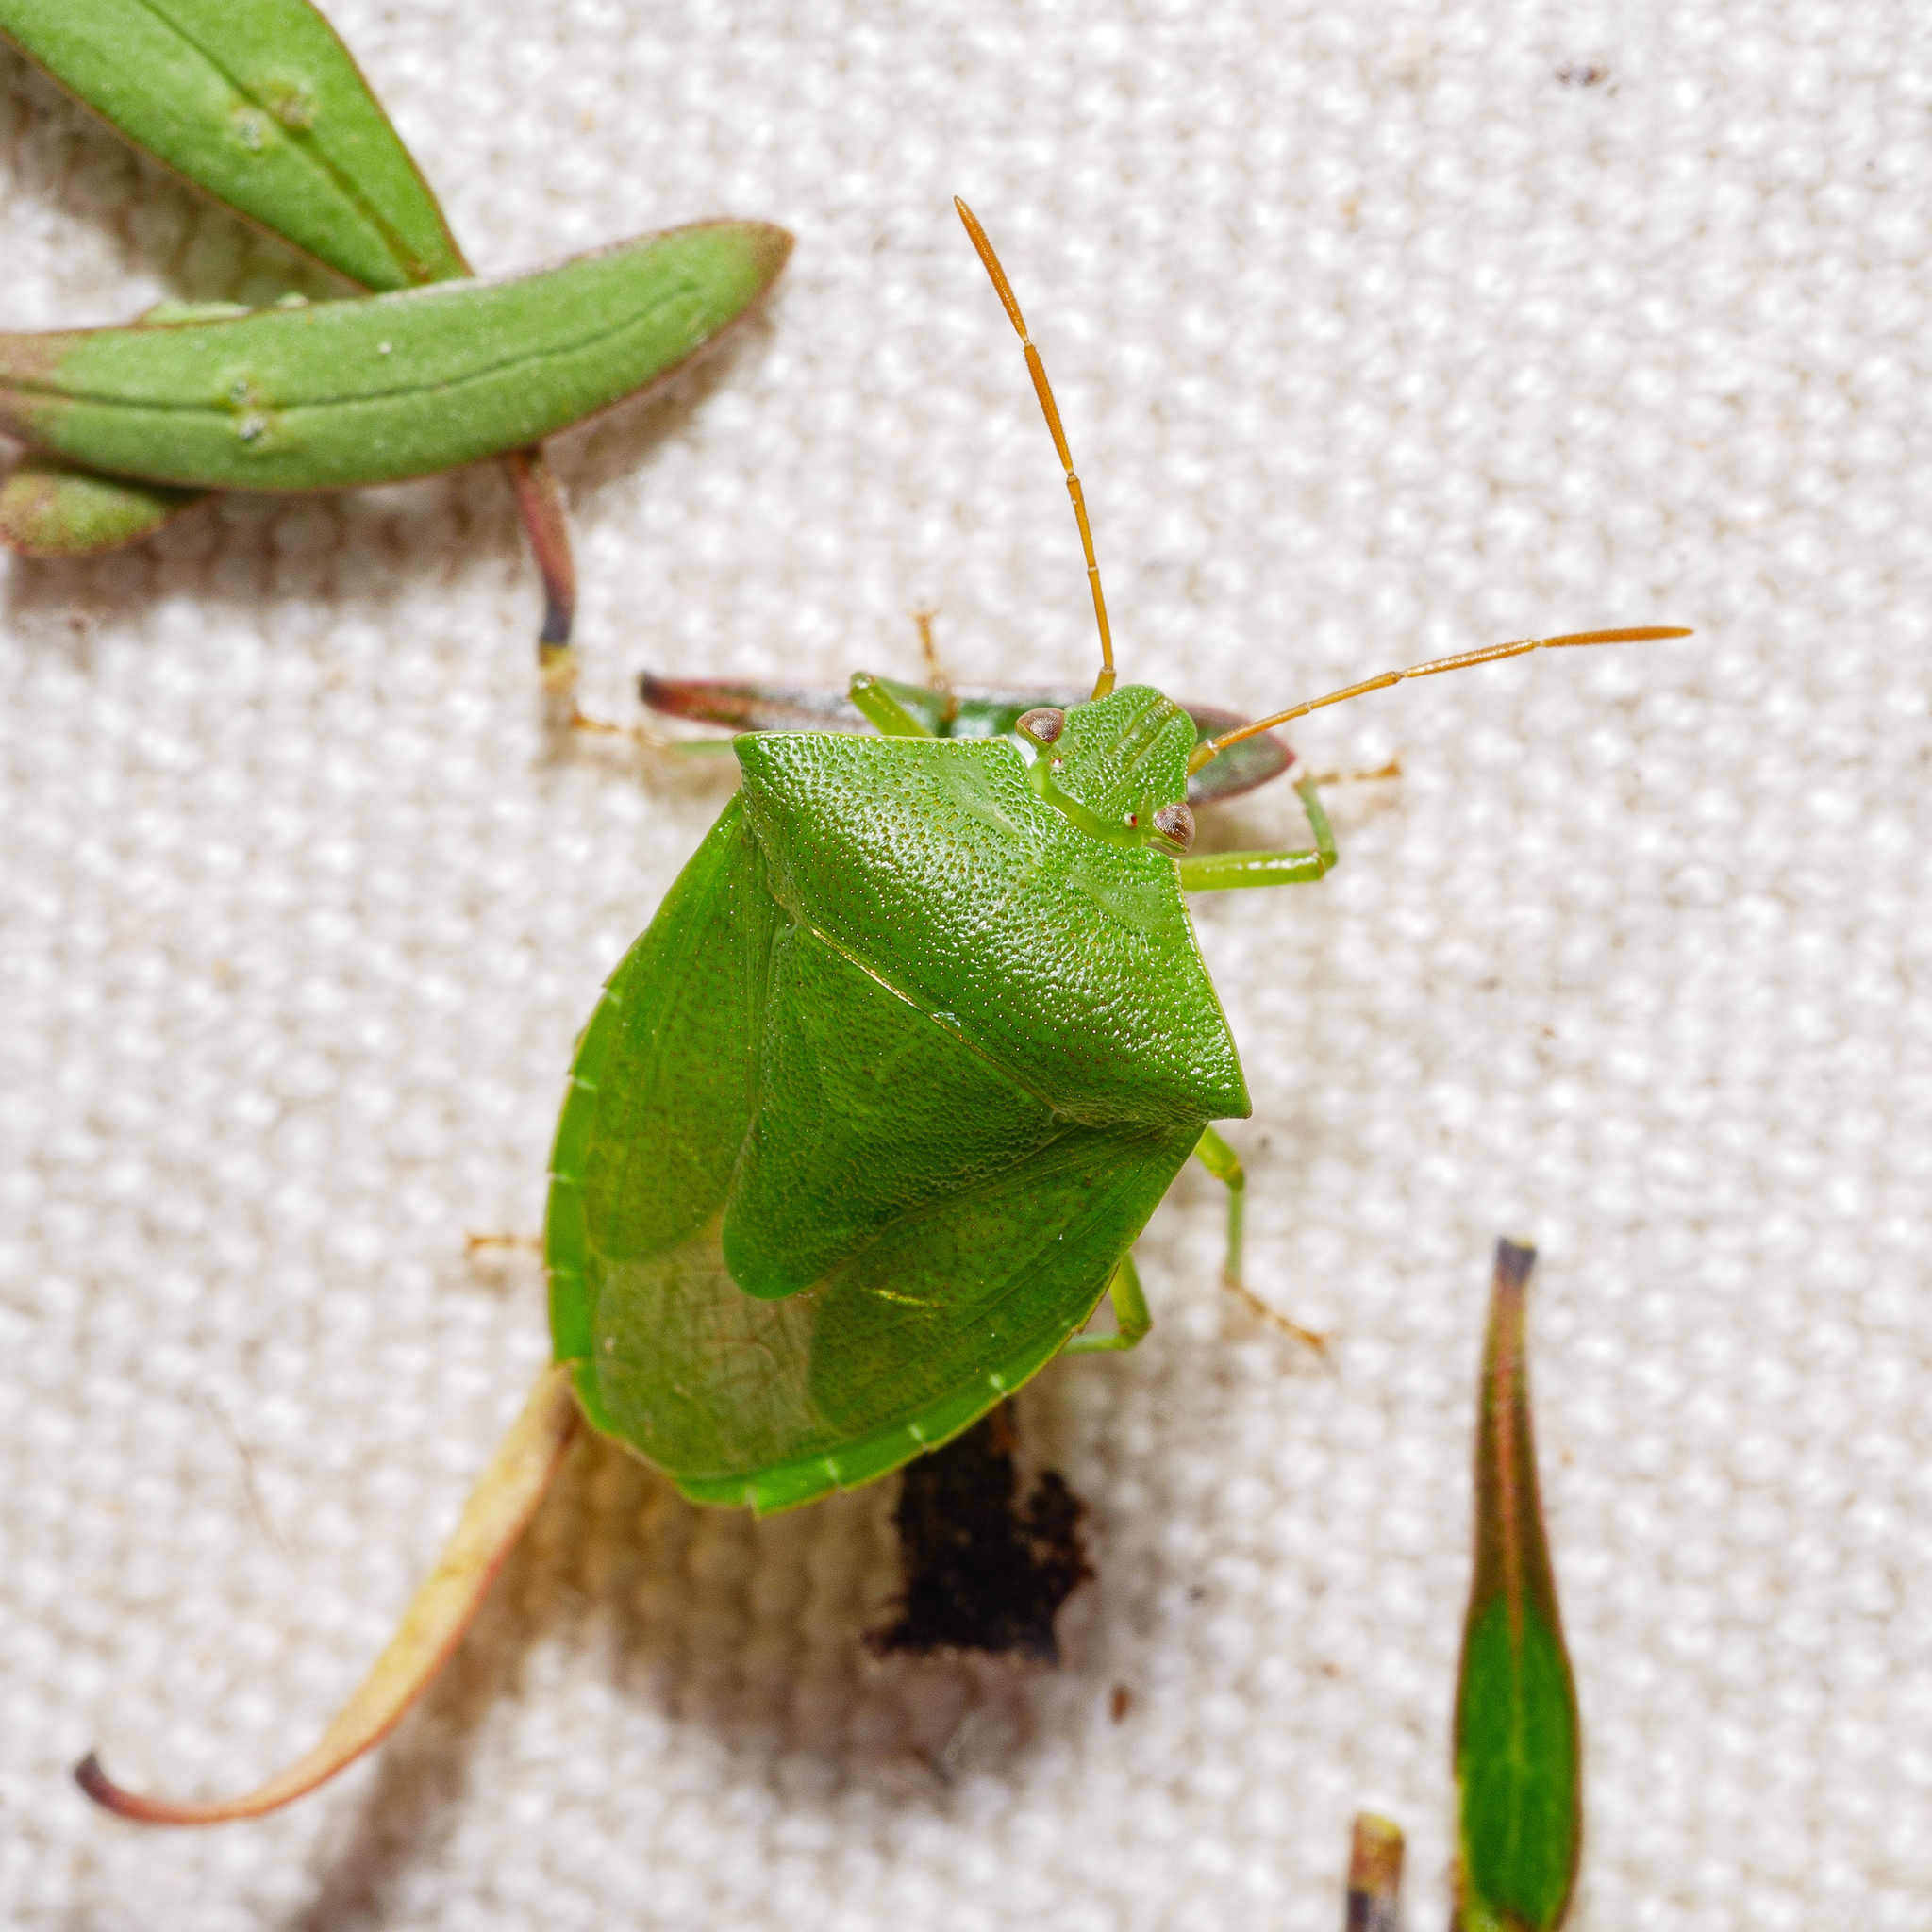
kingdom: Animalia
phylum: Arthropoda
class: Insecta
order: Hemiptera
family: Pentatomidae
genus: Cuspicona
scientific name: Cuspicona simplex
